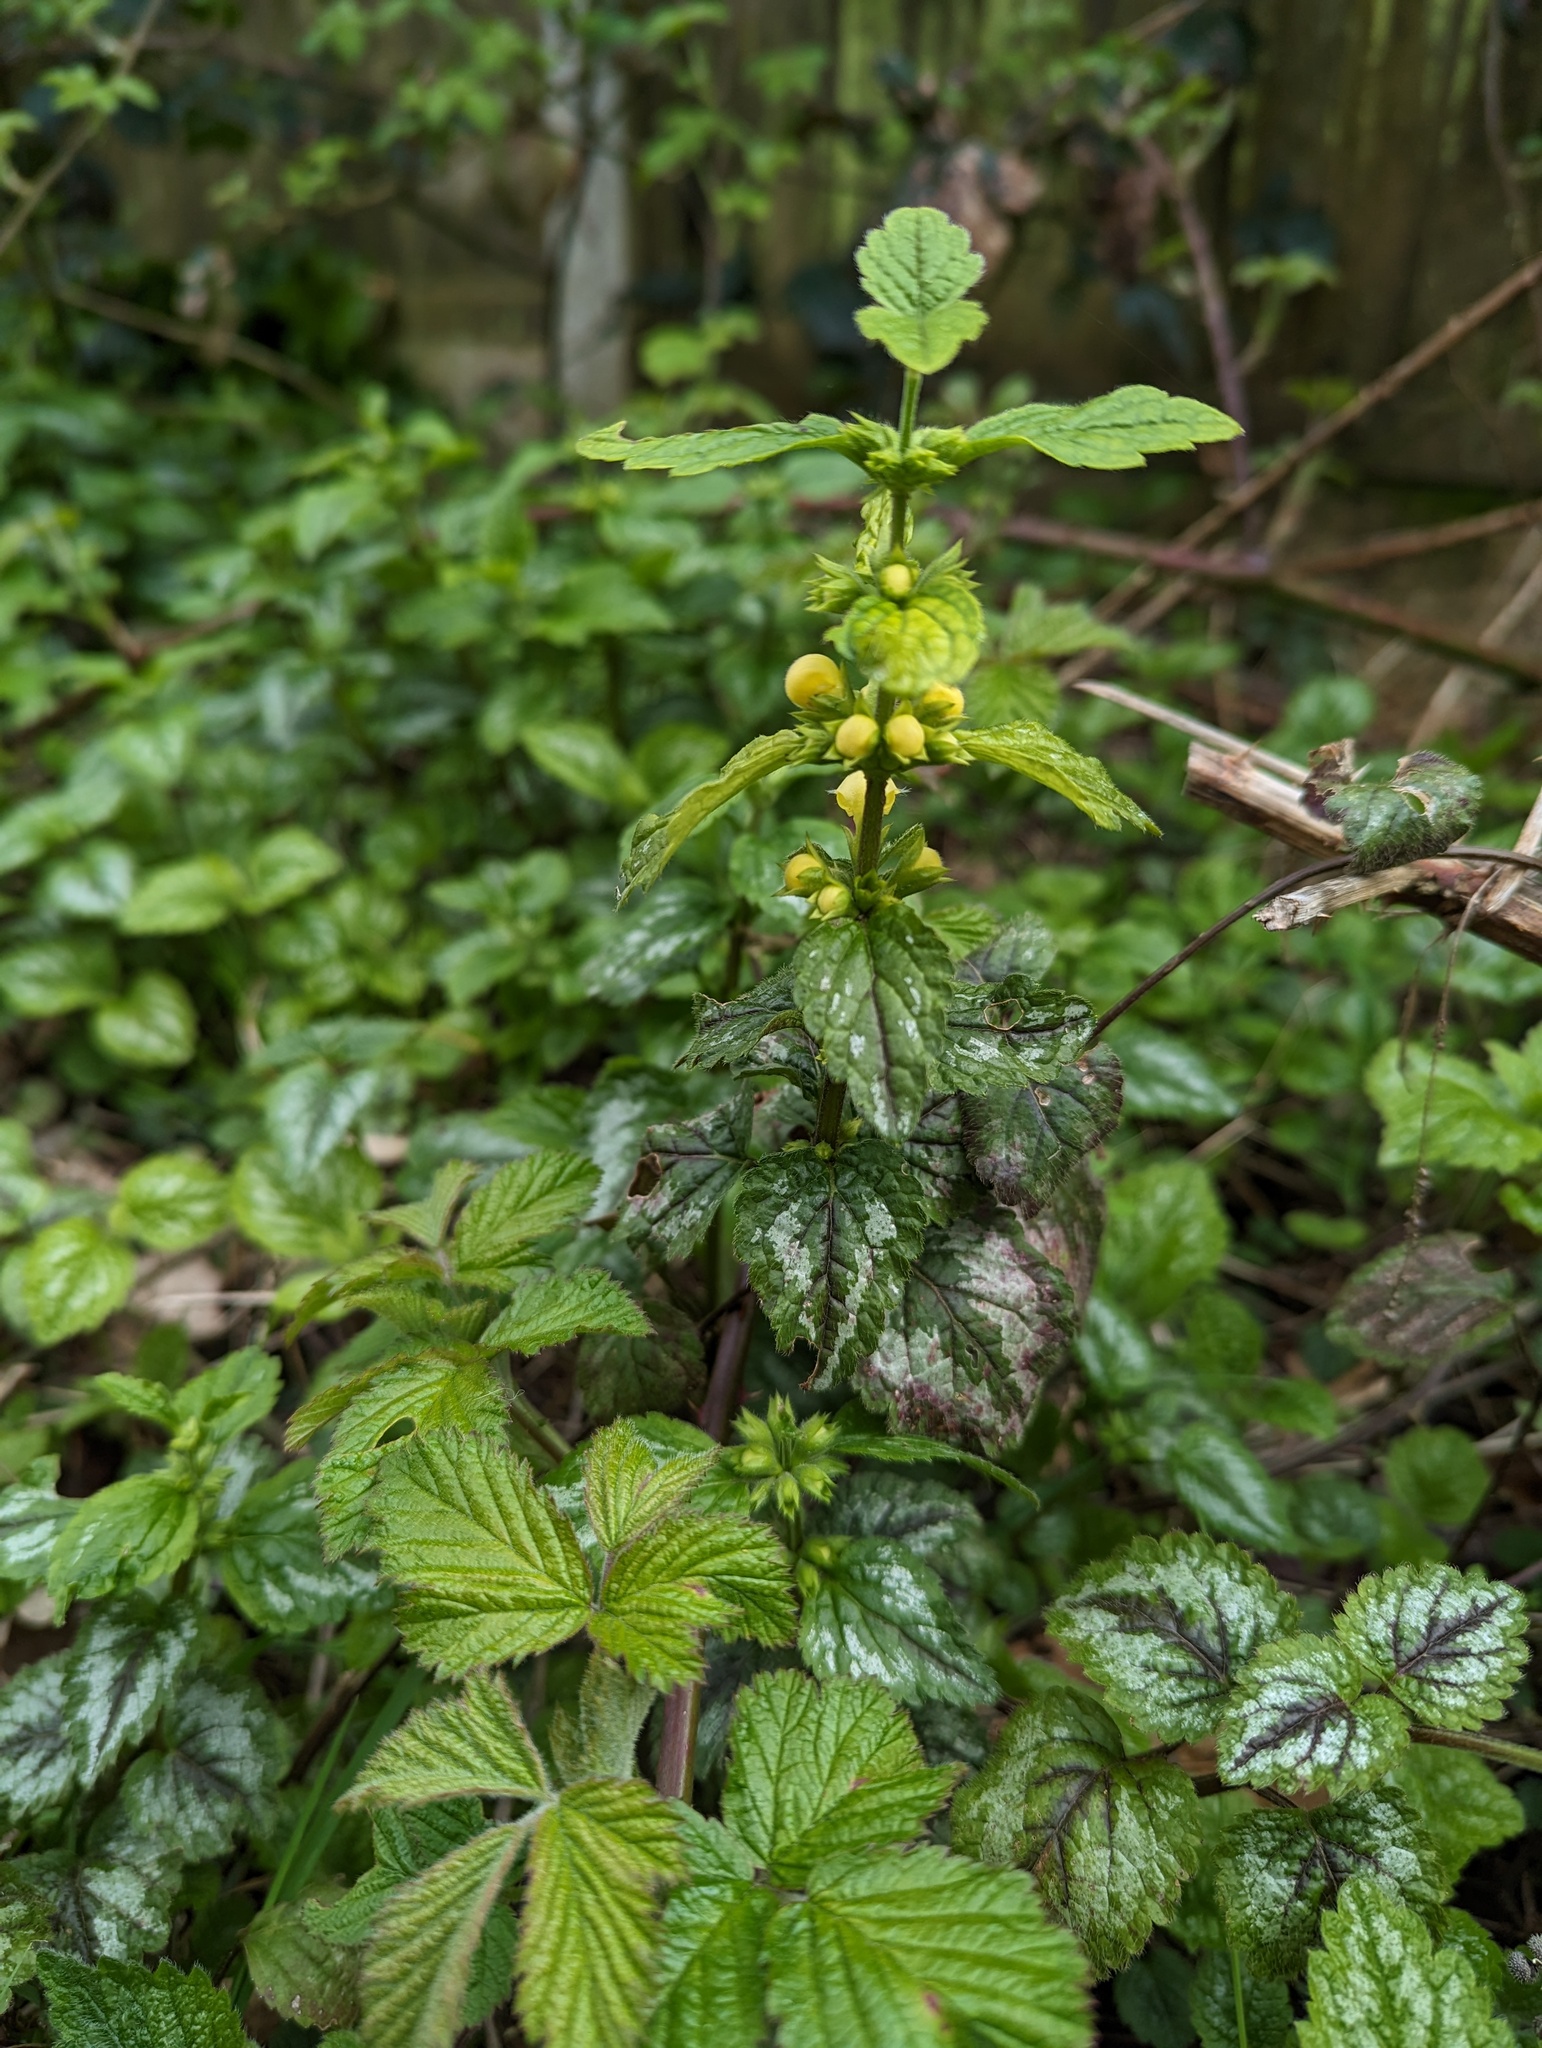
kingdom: Plantae
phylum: Tracheophyta
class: Magnoliopsida
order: Lamiales
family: Lamiaceae
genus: Lamium
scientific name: Lamium galeobdolon
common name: Yellow archangel
